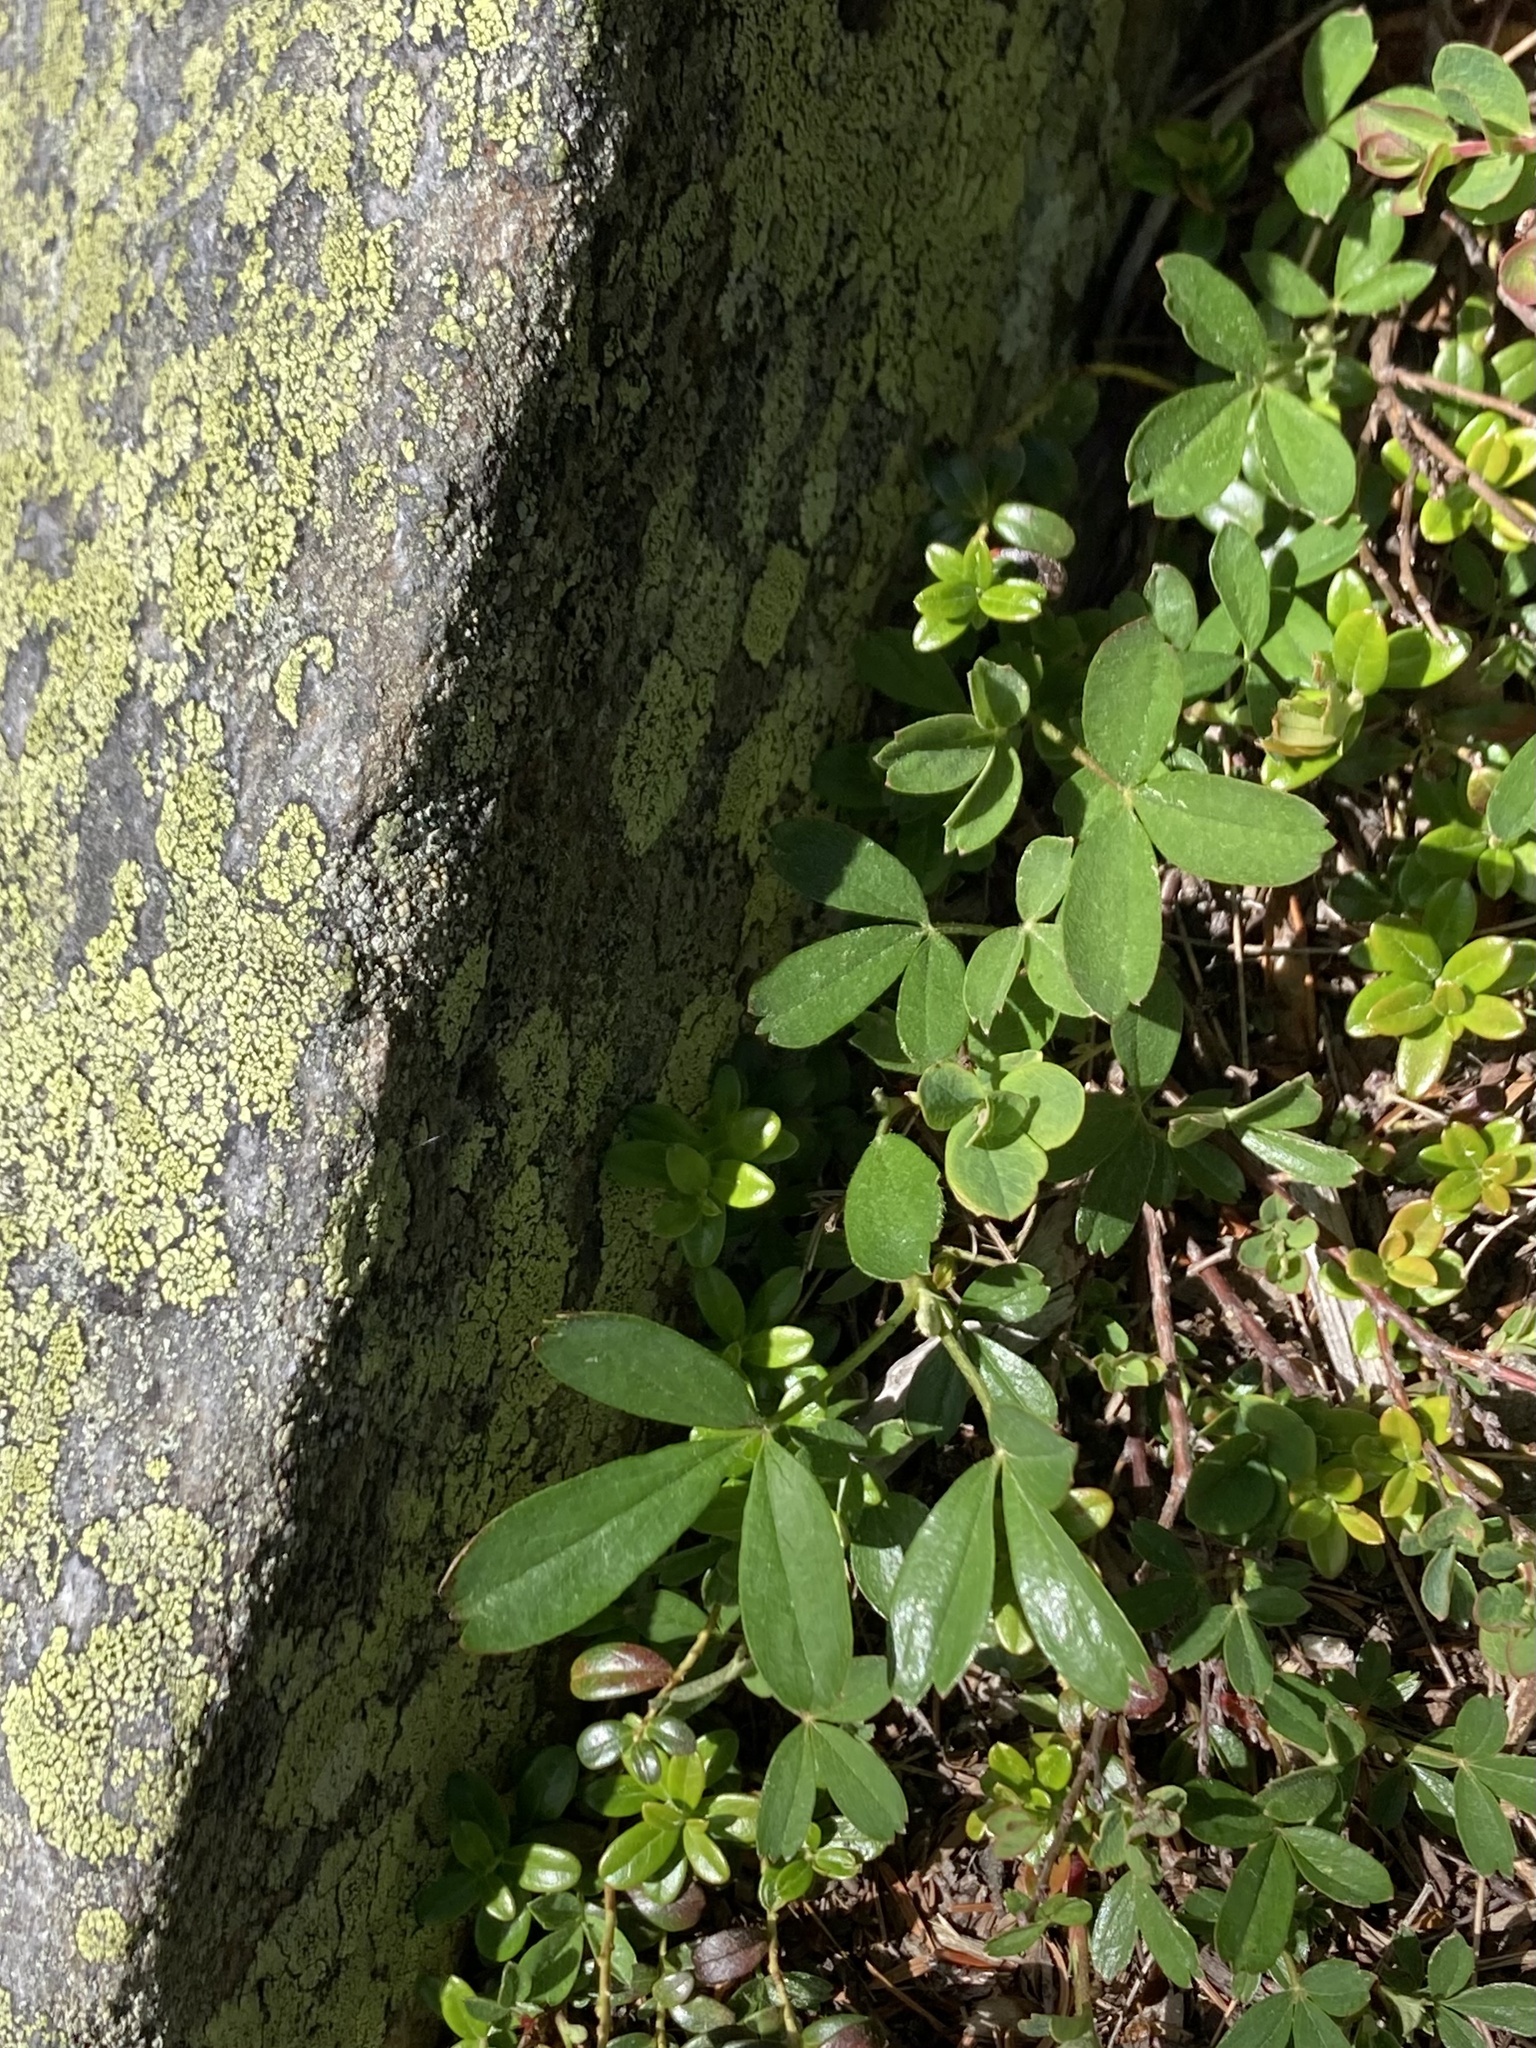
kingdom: Plantae
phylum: Tracheophyta
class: Magnoliopsida
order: Rosales
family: Rosaceae
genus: Sibbaldia
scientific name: Sibbaldia tridentata
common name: Three-toothed cinquefoil
